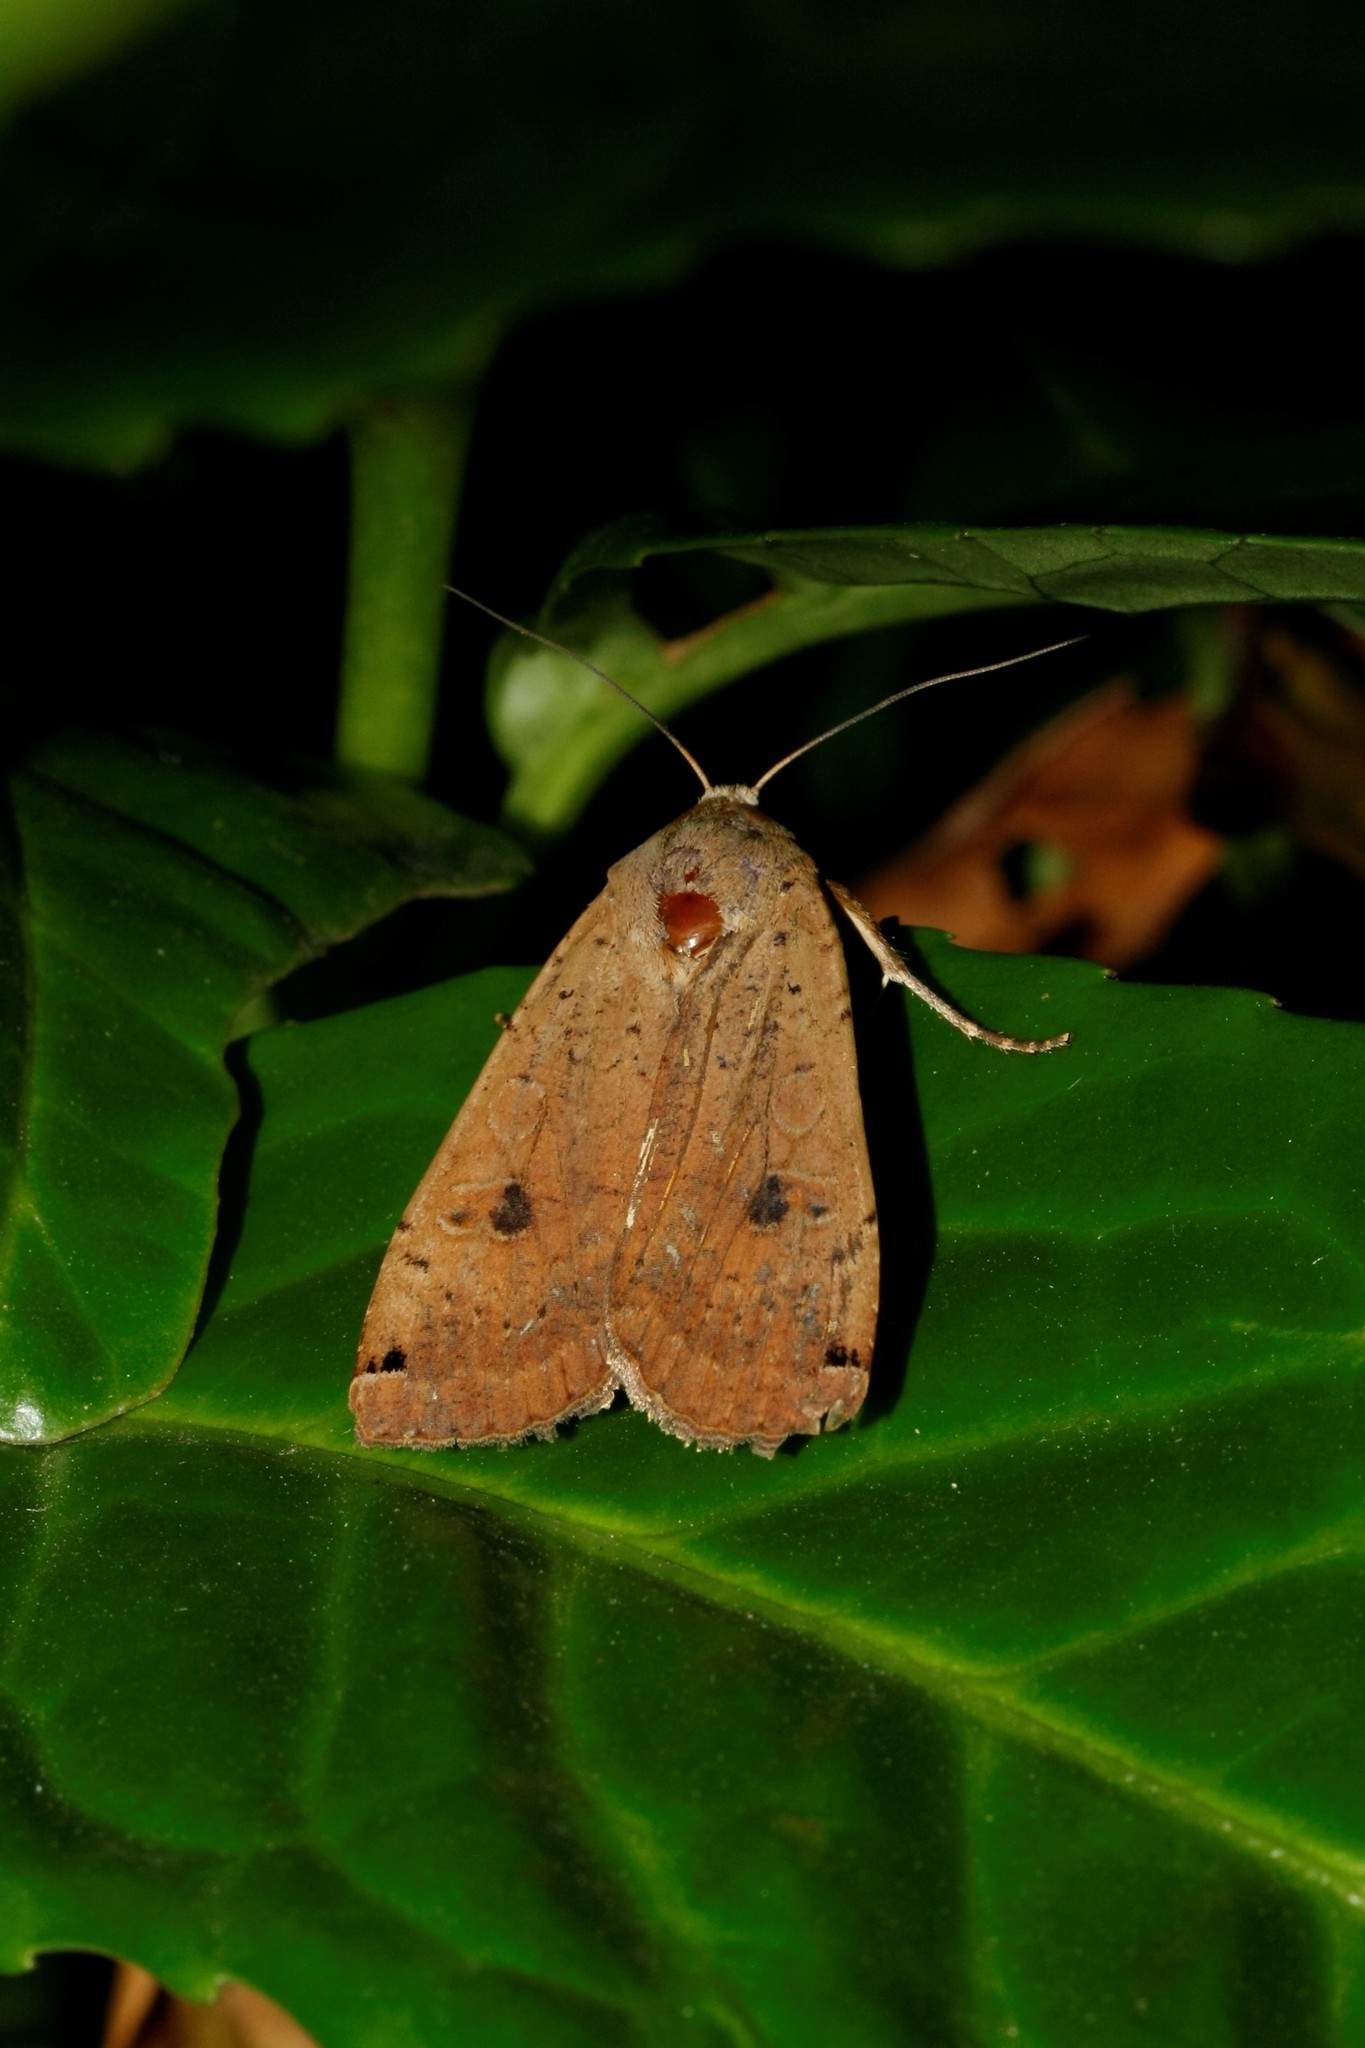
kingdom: Animalia
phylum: Arthropoda
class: Insecta
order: Lepidoptera
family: Noctuidae
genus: Noctua
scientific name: Noctua pronuba
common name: Large yellow underwing
